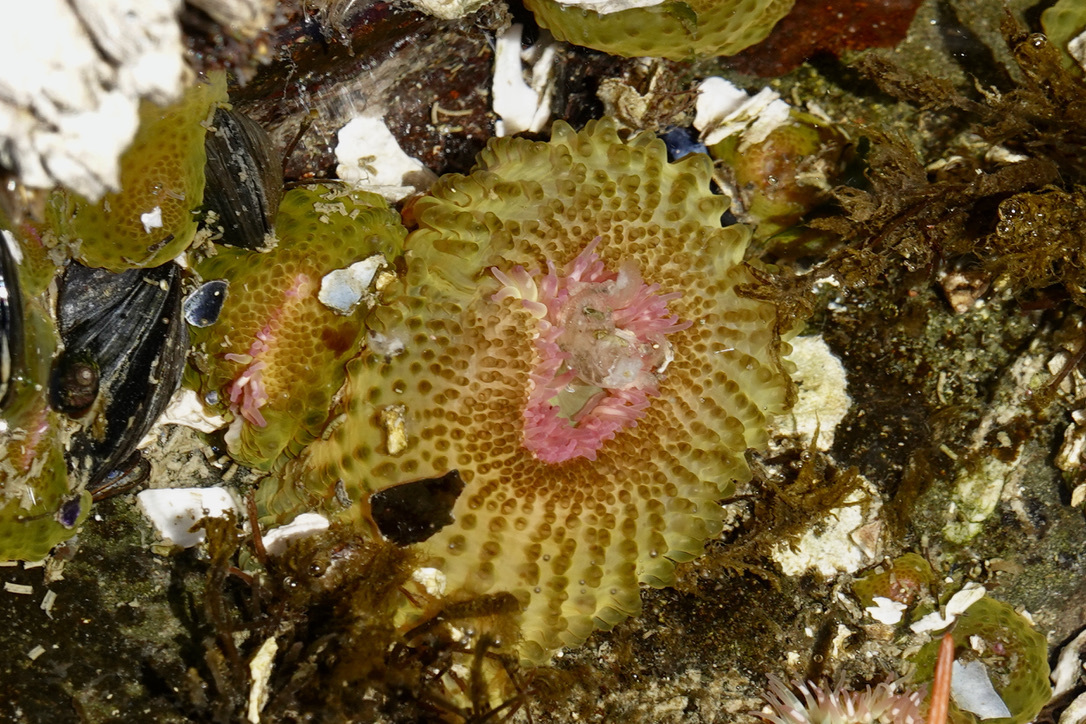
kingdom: Animalia
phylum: Cnidaria
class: Anthozoa
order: Actiniaria
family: Actiniidae
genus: Anthopleura
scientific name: Anthopleura elegantissima
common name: Clonal anemone
